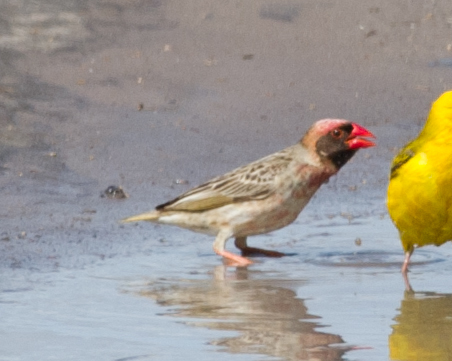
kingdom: Animalia
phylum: Chordata
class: Aves
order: Passeriformes
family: Ploceidae
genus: Quelea
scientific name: Quelea quelea
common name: Red-billed quelea
